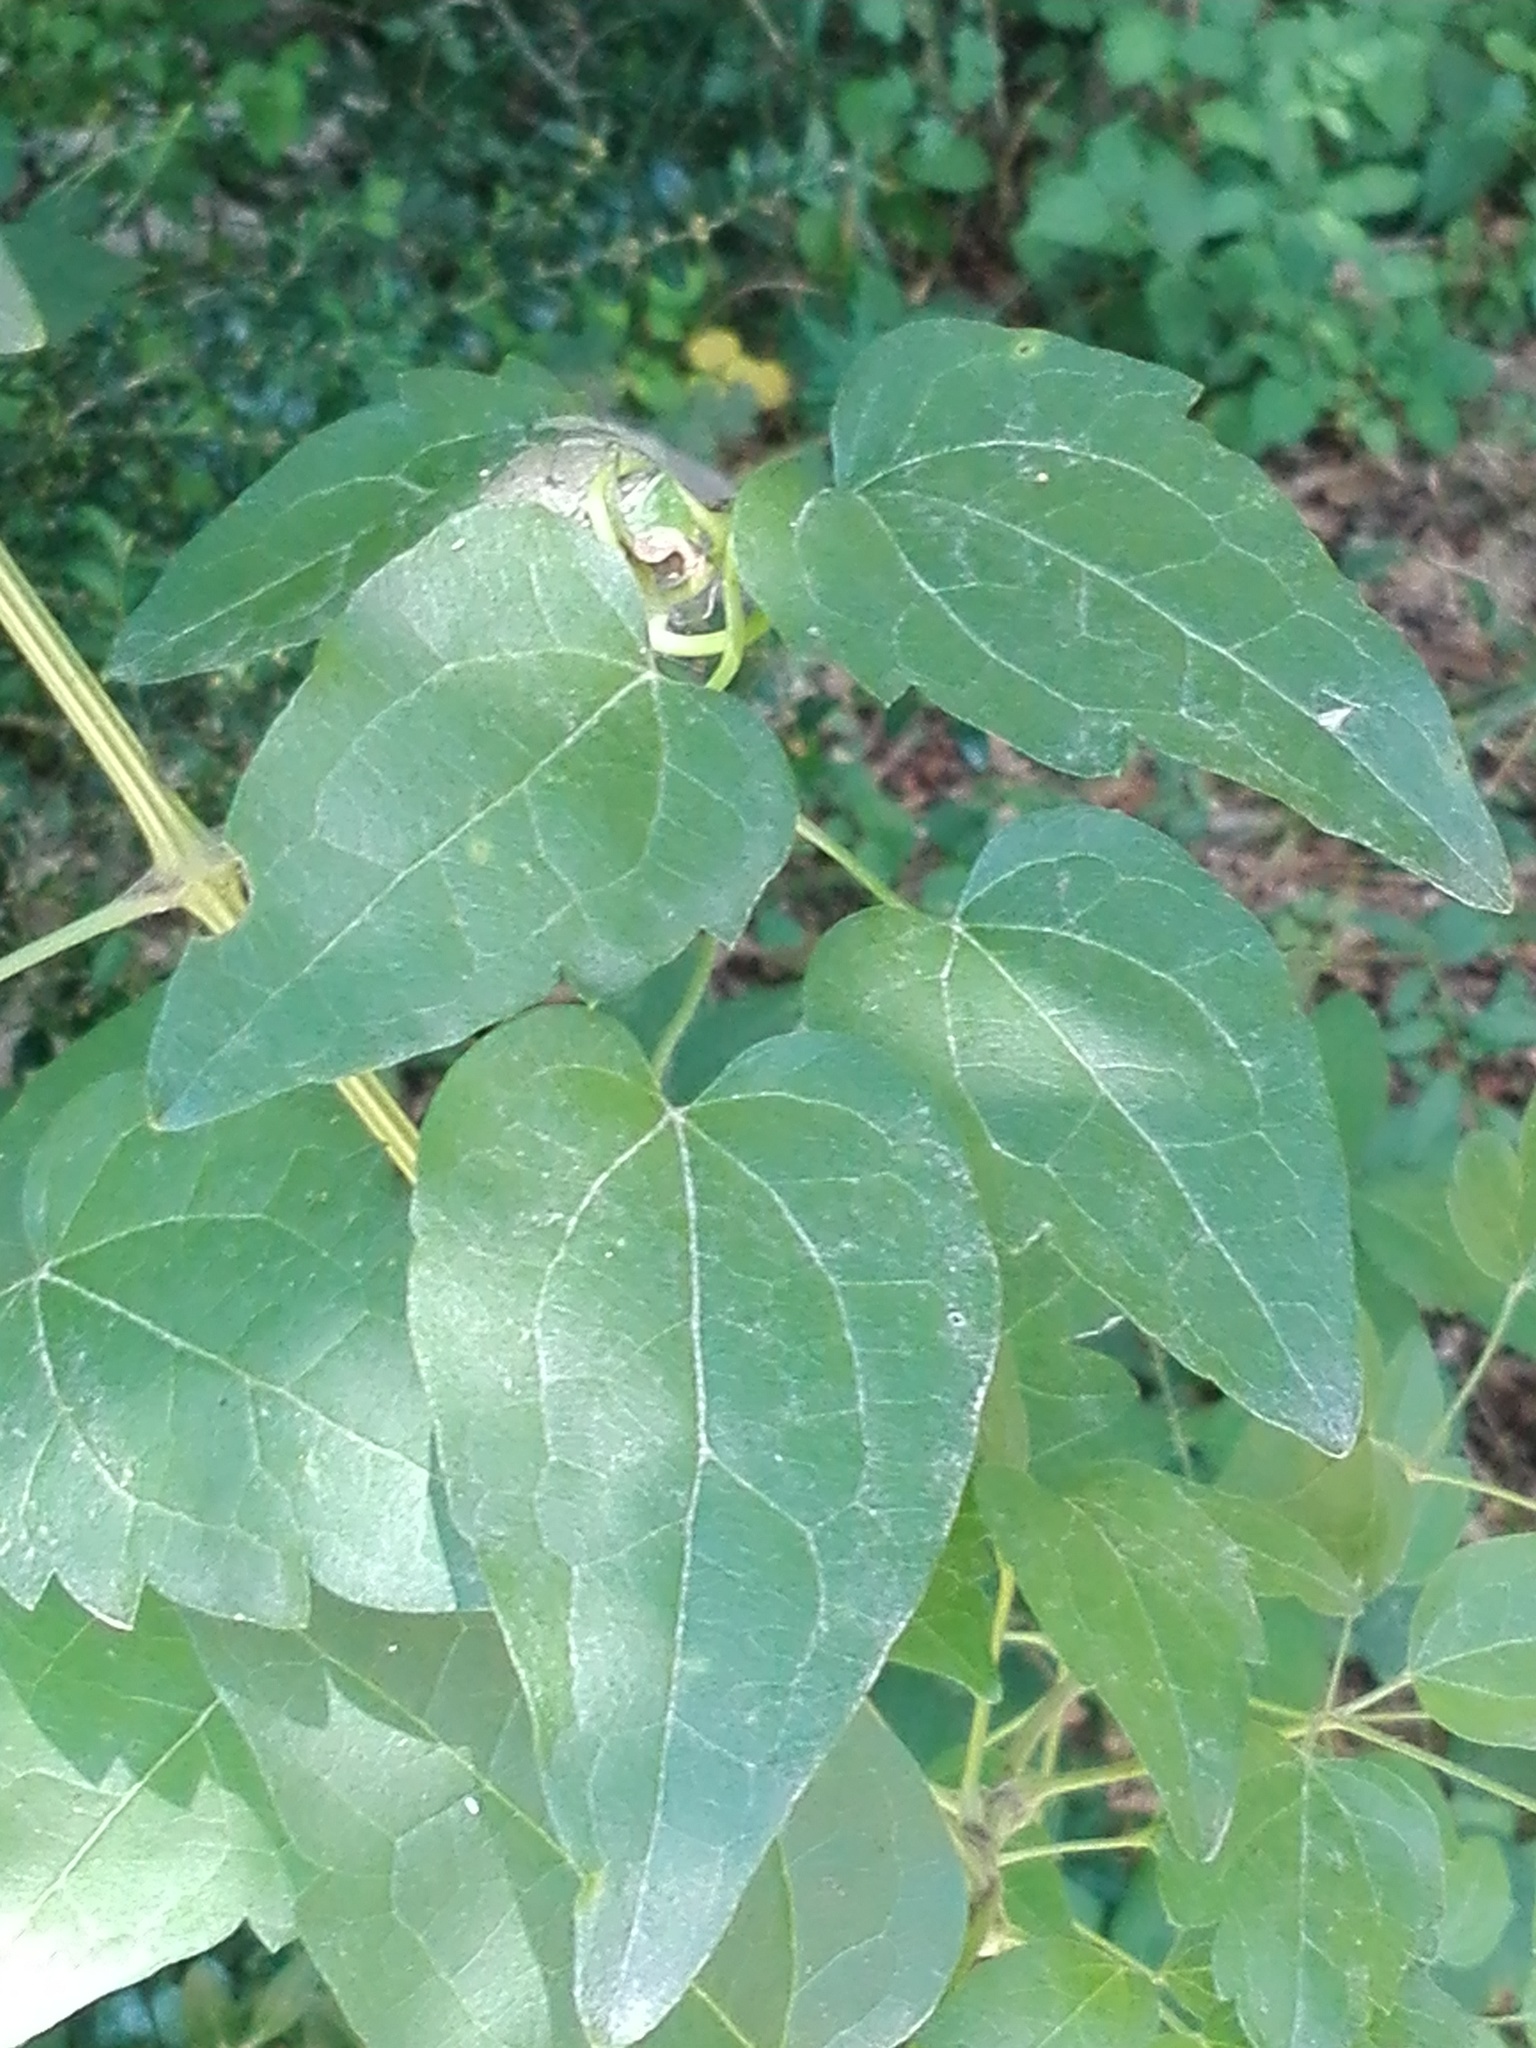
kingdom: Plantae
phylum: Tracheophyta
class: Magnoliopsida
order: Ranunculales
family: Ranunculaceae
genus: Clematis
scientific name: Clematis vitalba
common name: Evergreen clematis
